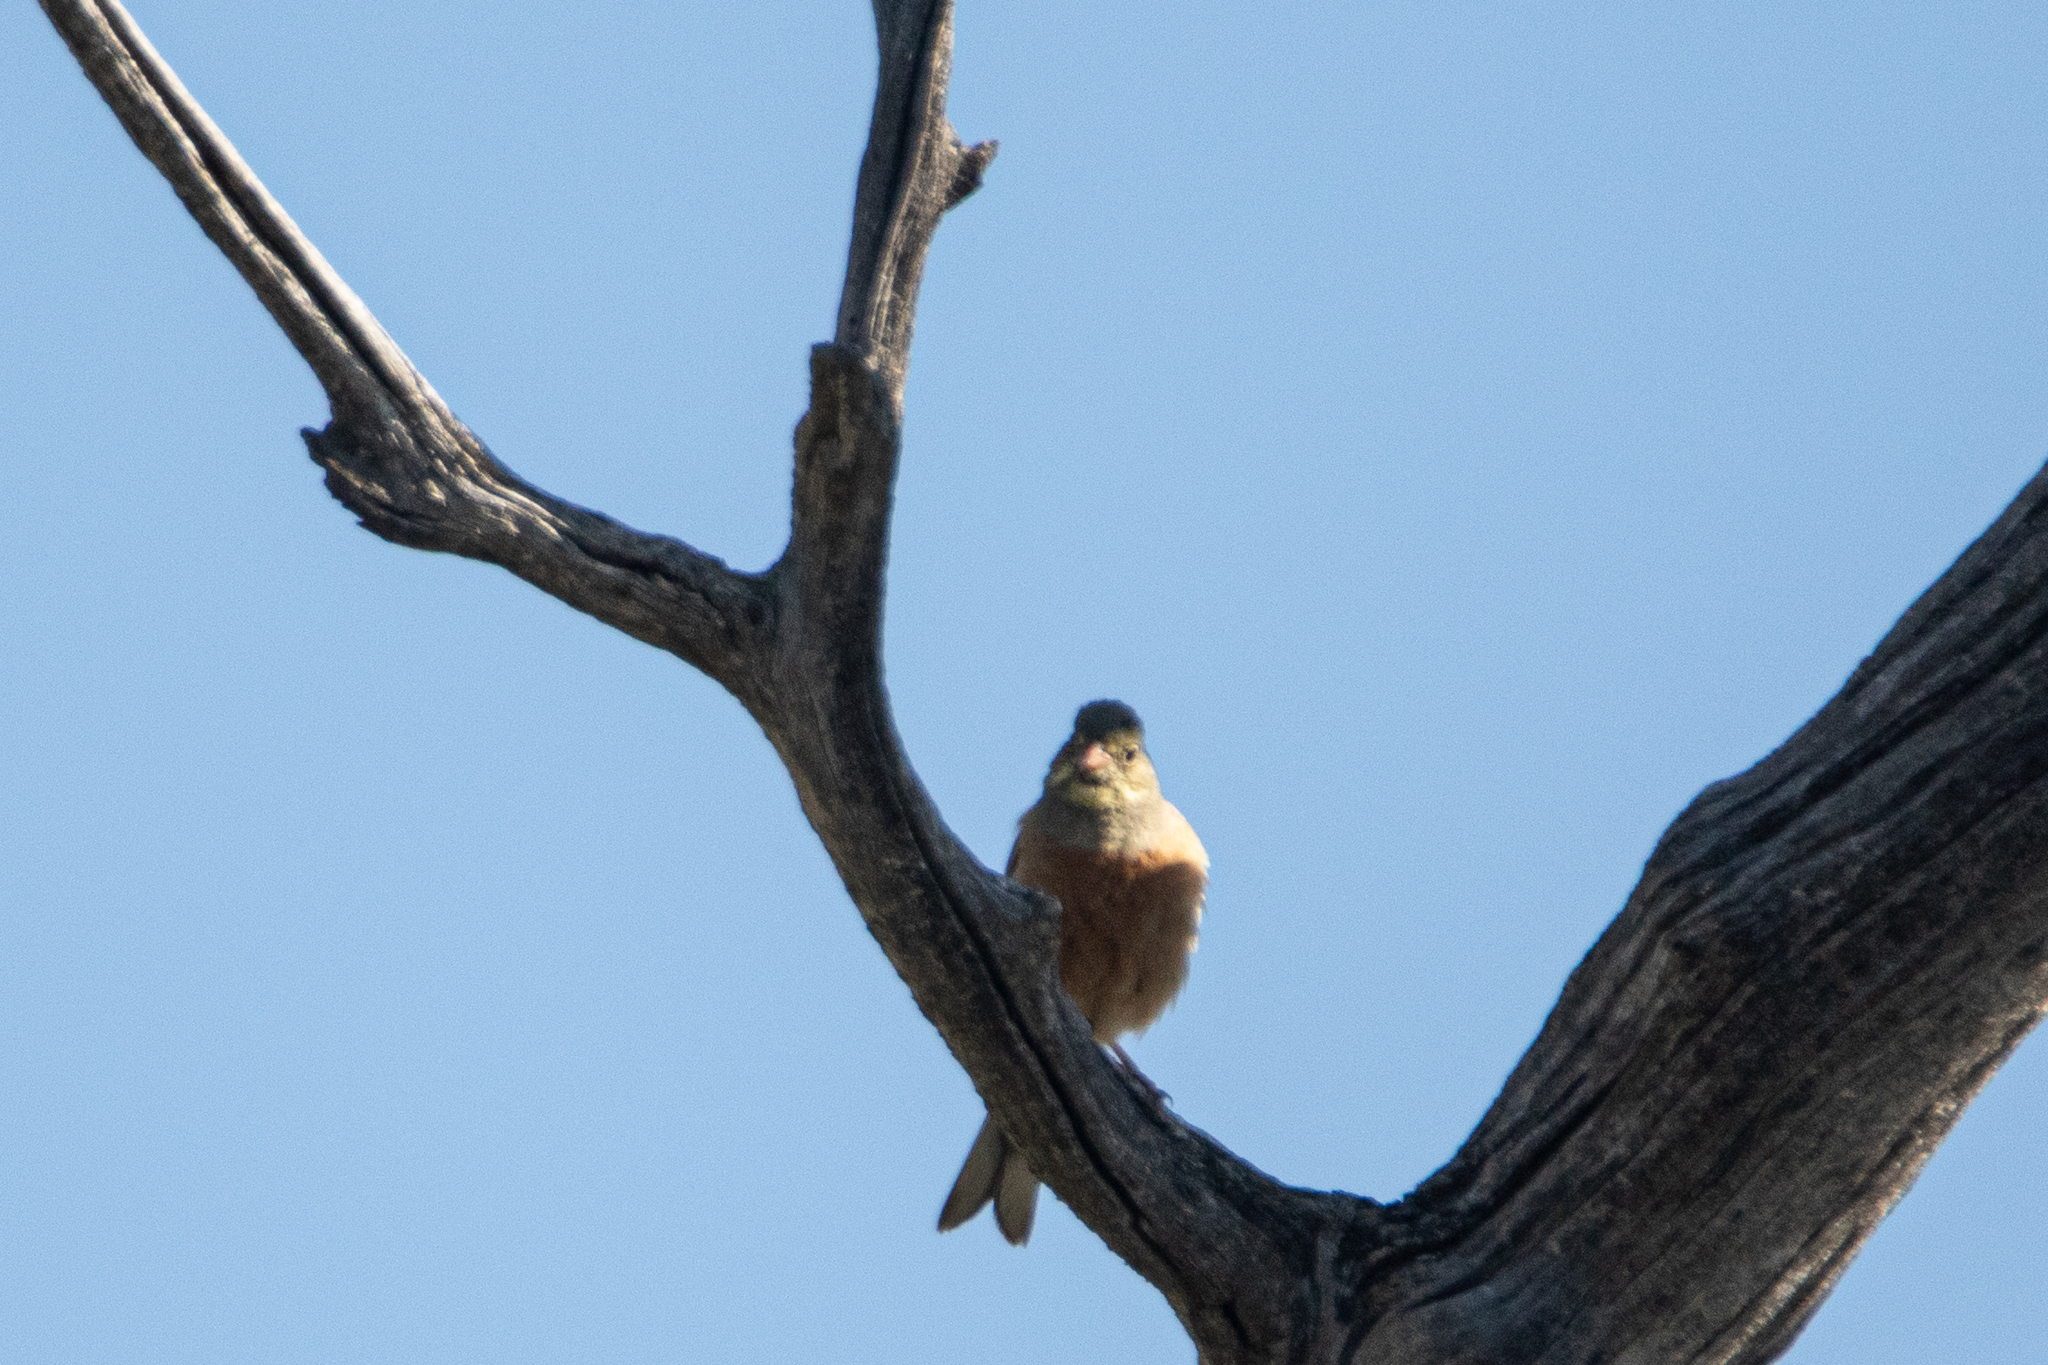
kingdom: Animalia
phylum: Chordata
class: Aves
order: Passeriformes
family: Emberizidae
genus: Emberiza
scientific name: Emberiza hortulana
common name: Ortolan bunting
